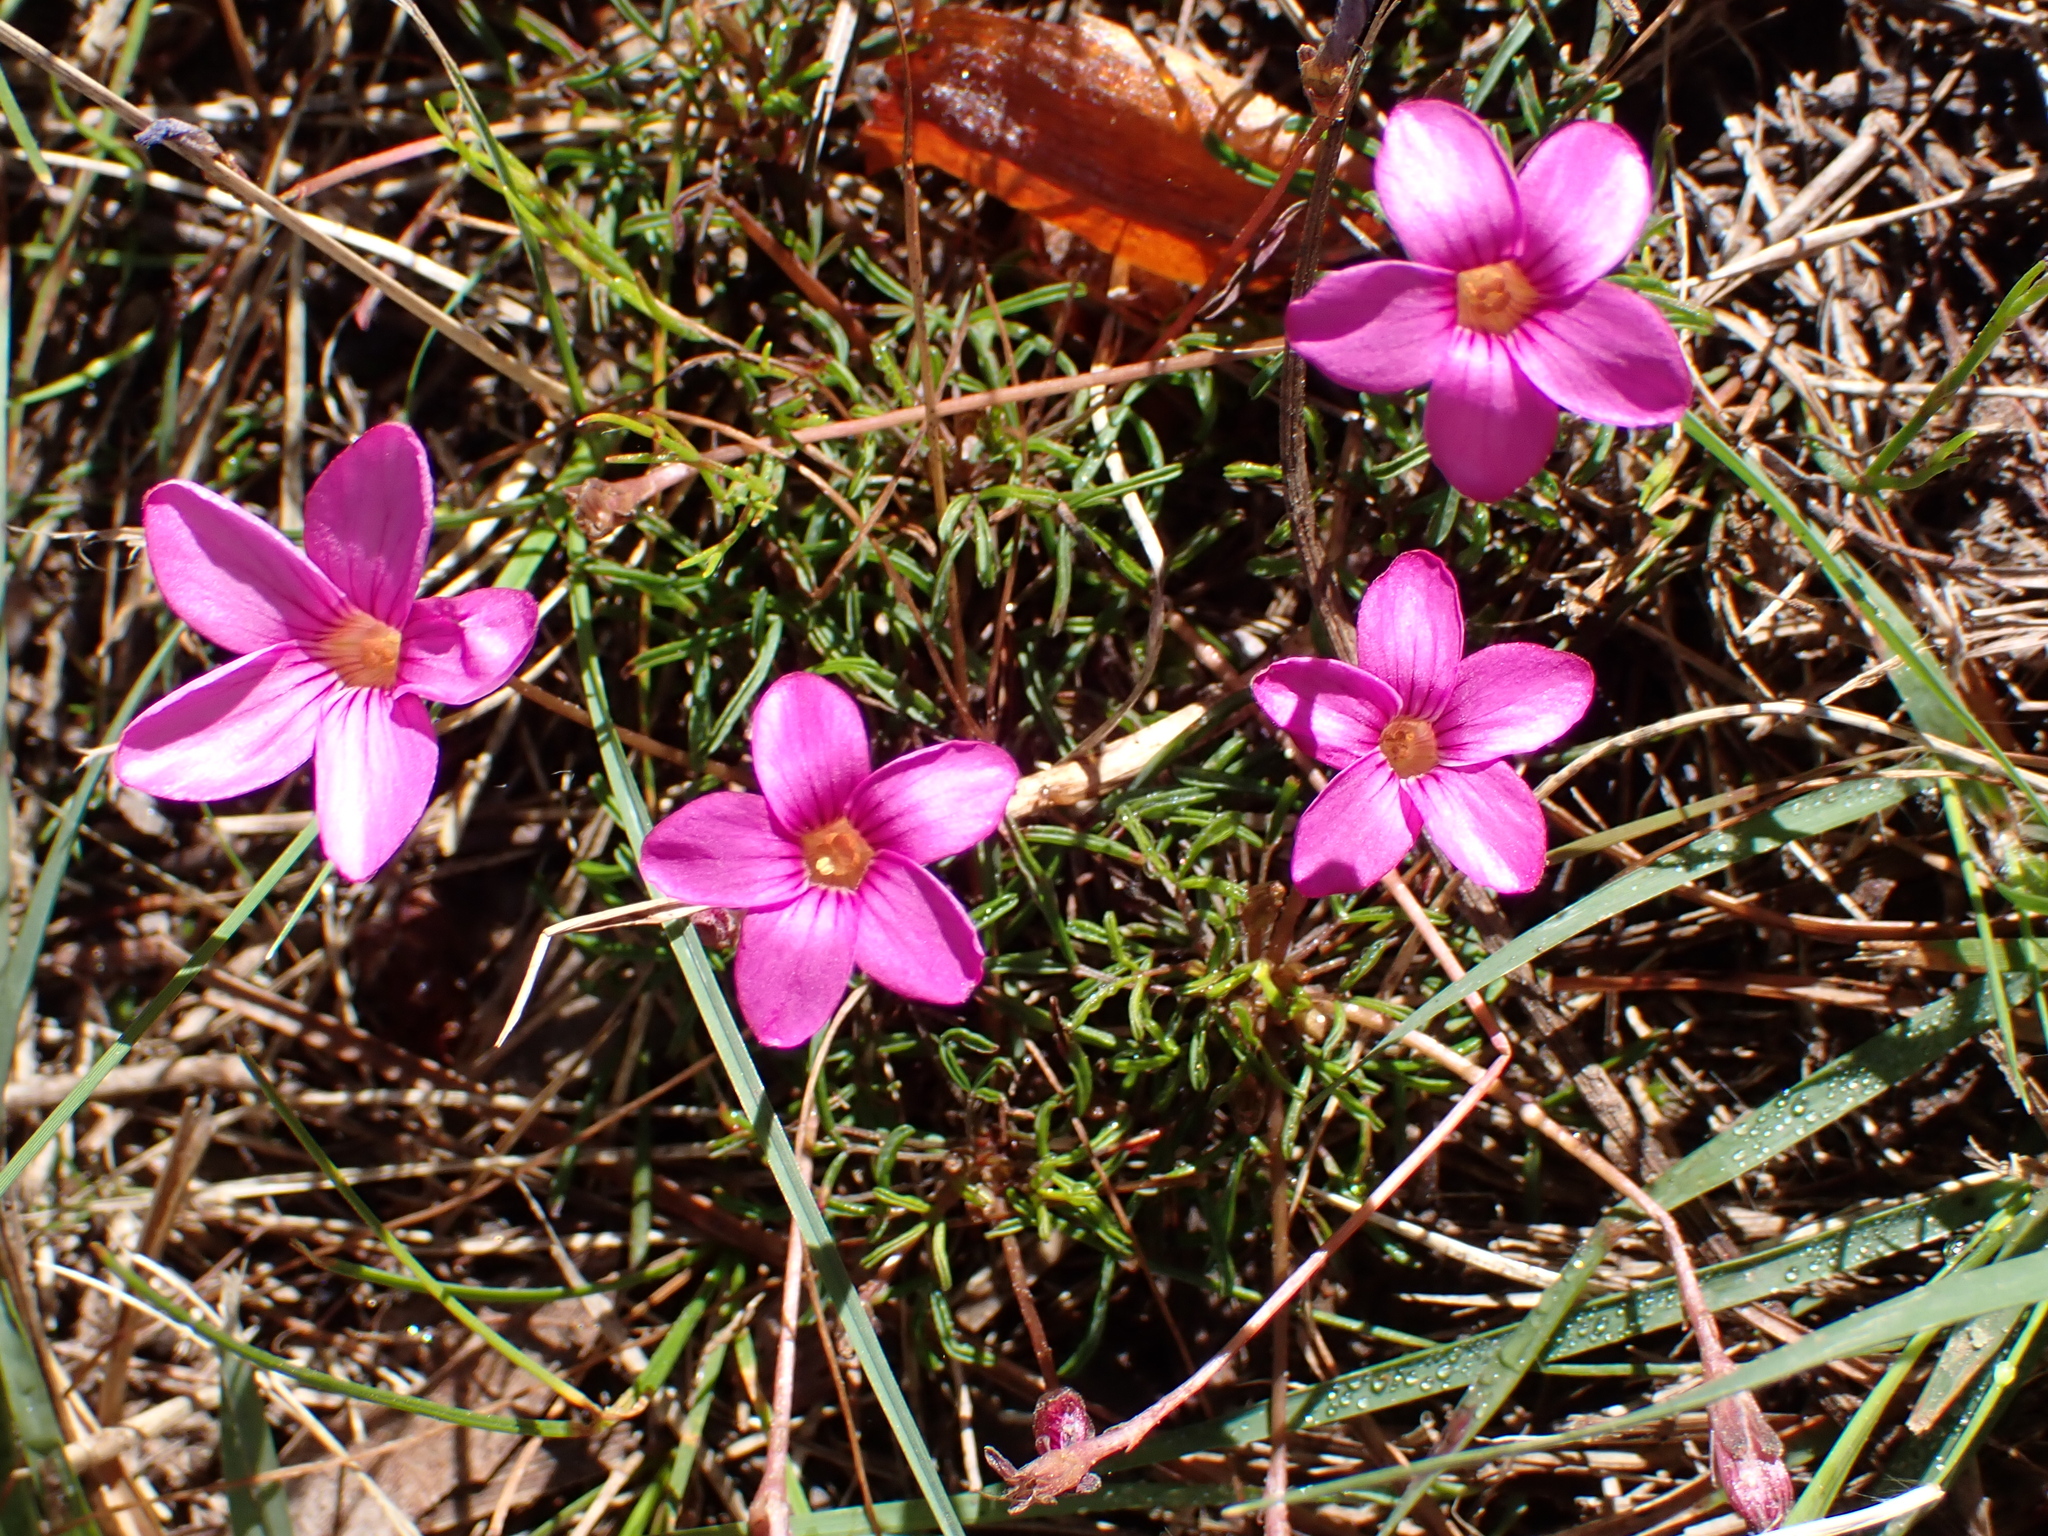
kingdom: Plantae
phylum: Tracheophyta
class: Magnoliopsida
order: Oxalidales
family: Oxalidaceae
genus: Oxalis
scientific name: Oxalis polyphylla
